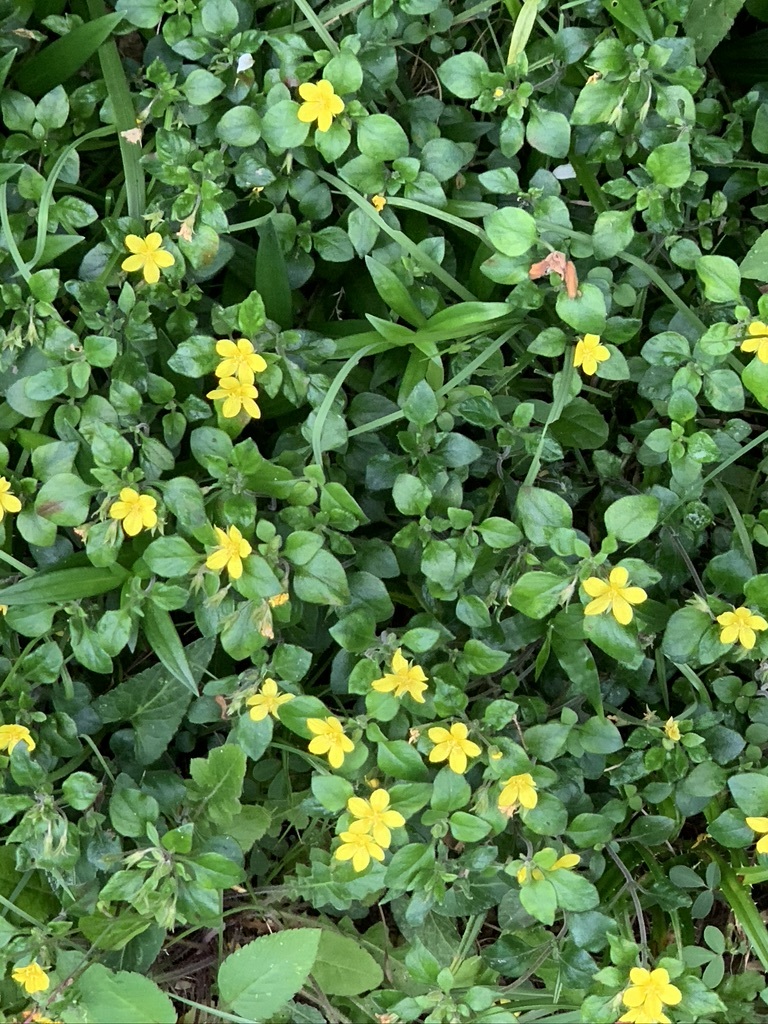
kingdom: Plantae
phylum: Tracheophyta
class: Magnoliopsida
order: Ericales
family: Primulaceae
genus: Lysimachia
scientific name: Lysimachia remota
